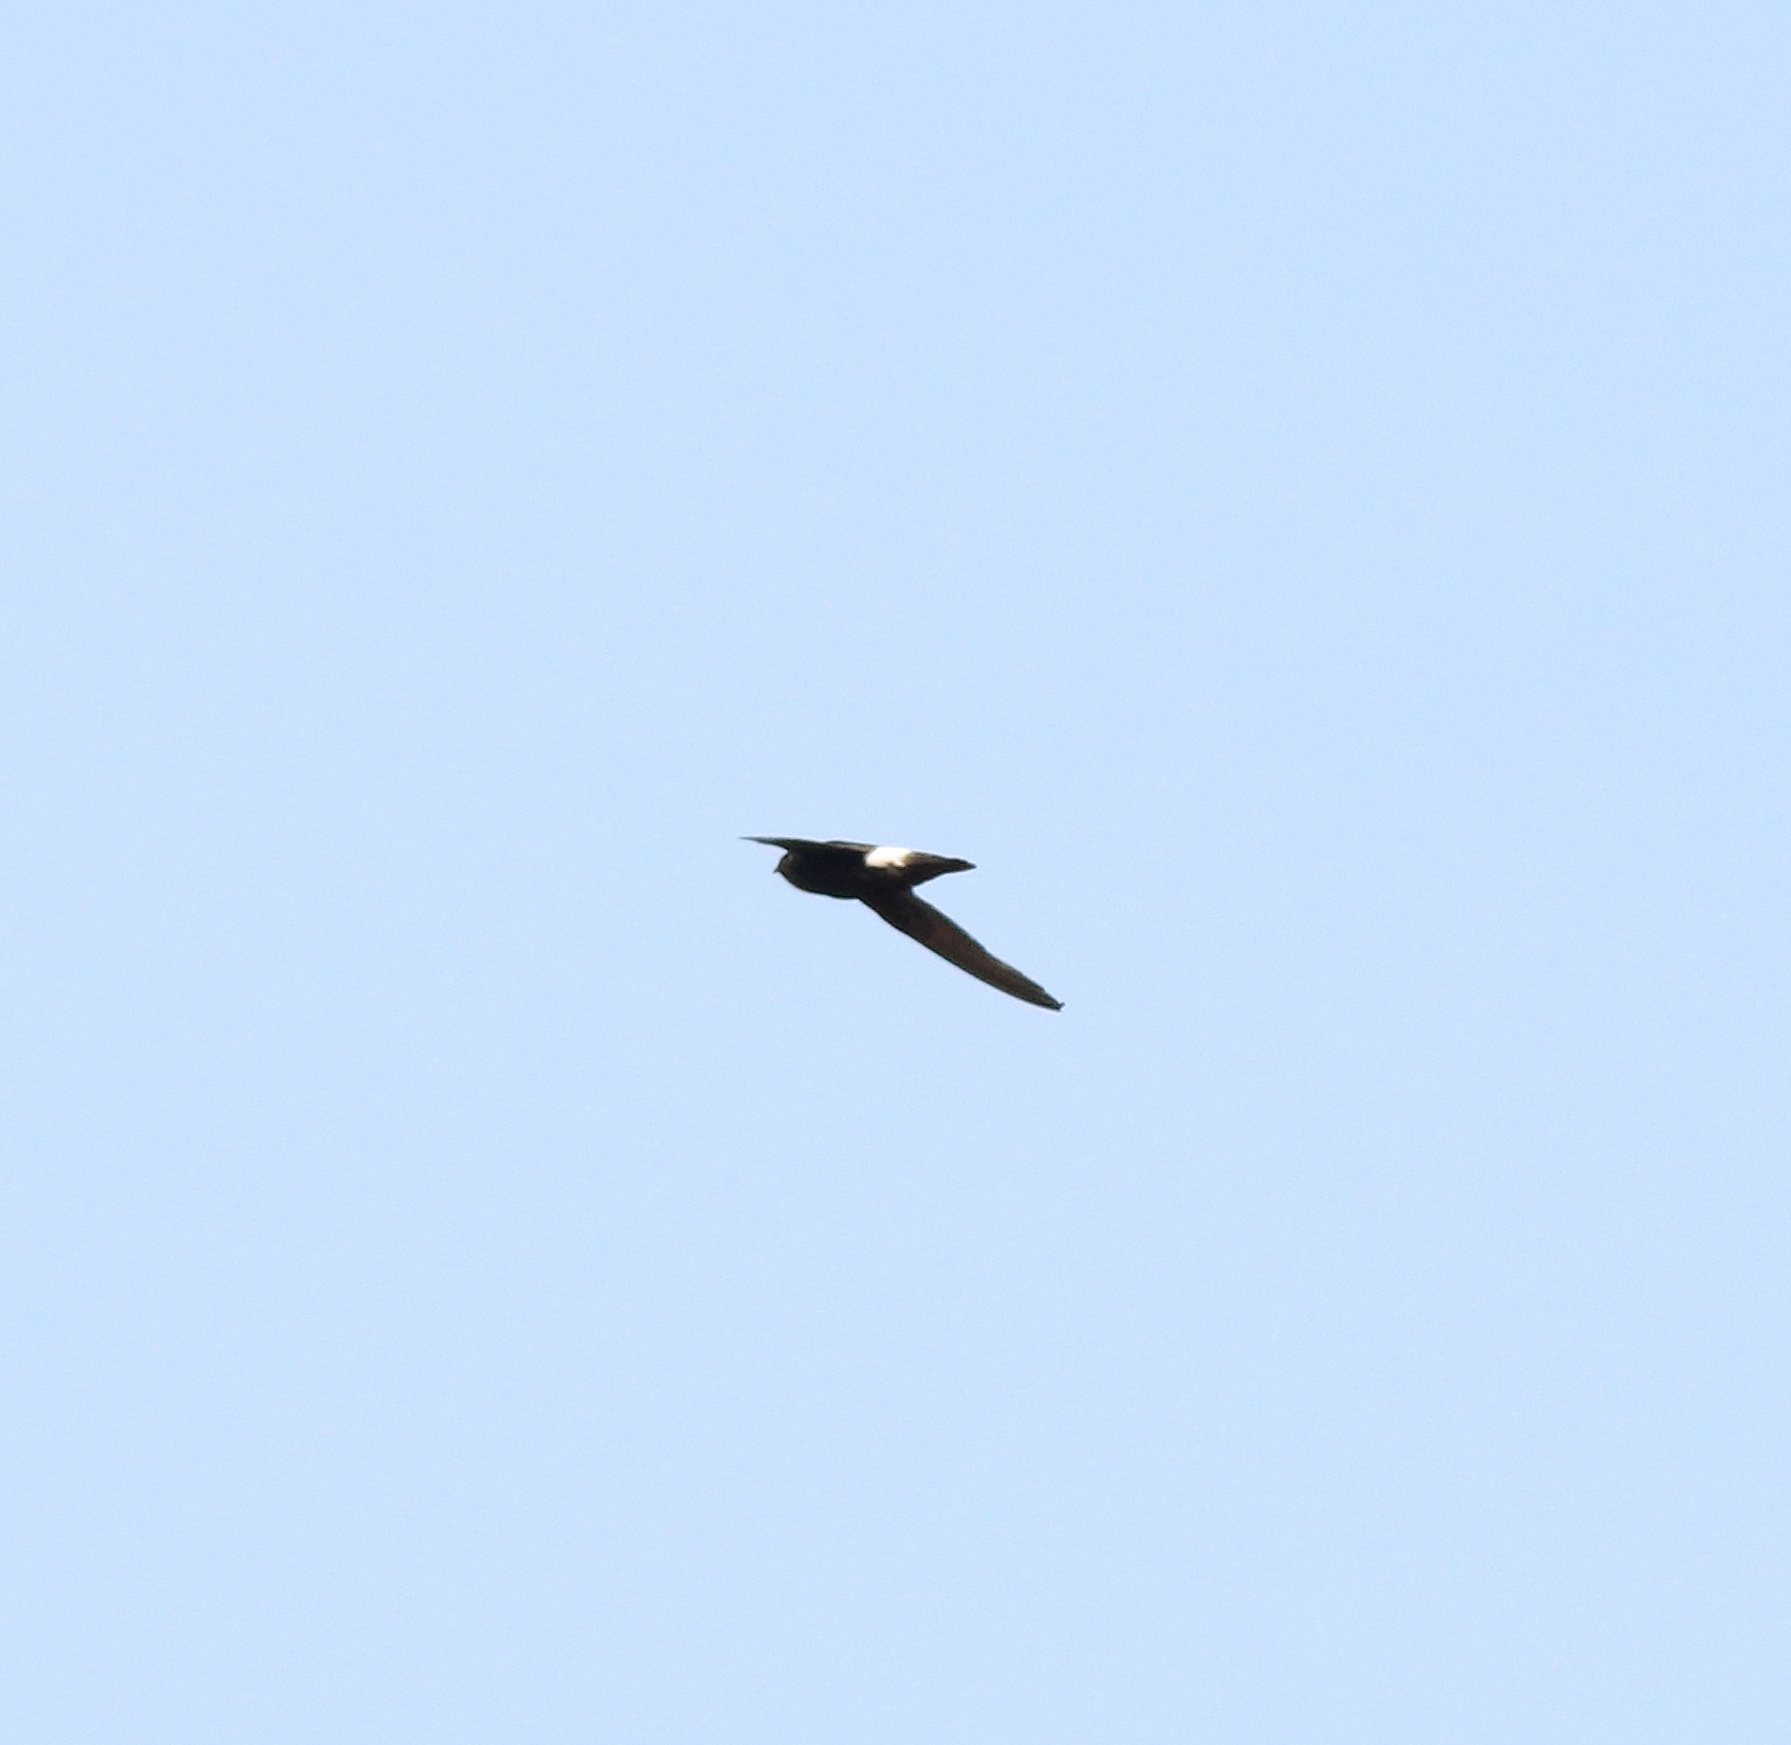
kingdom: Animalia
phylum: Chordata
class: Aves
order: Apodiformes
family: Apodidae
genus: Apus
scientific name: Apus affinis
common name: Little swift
